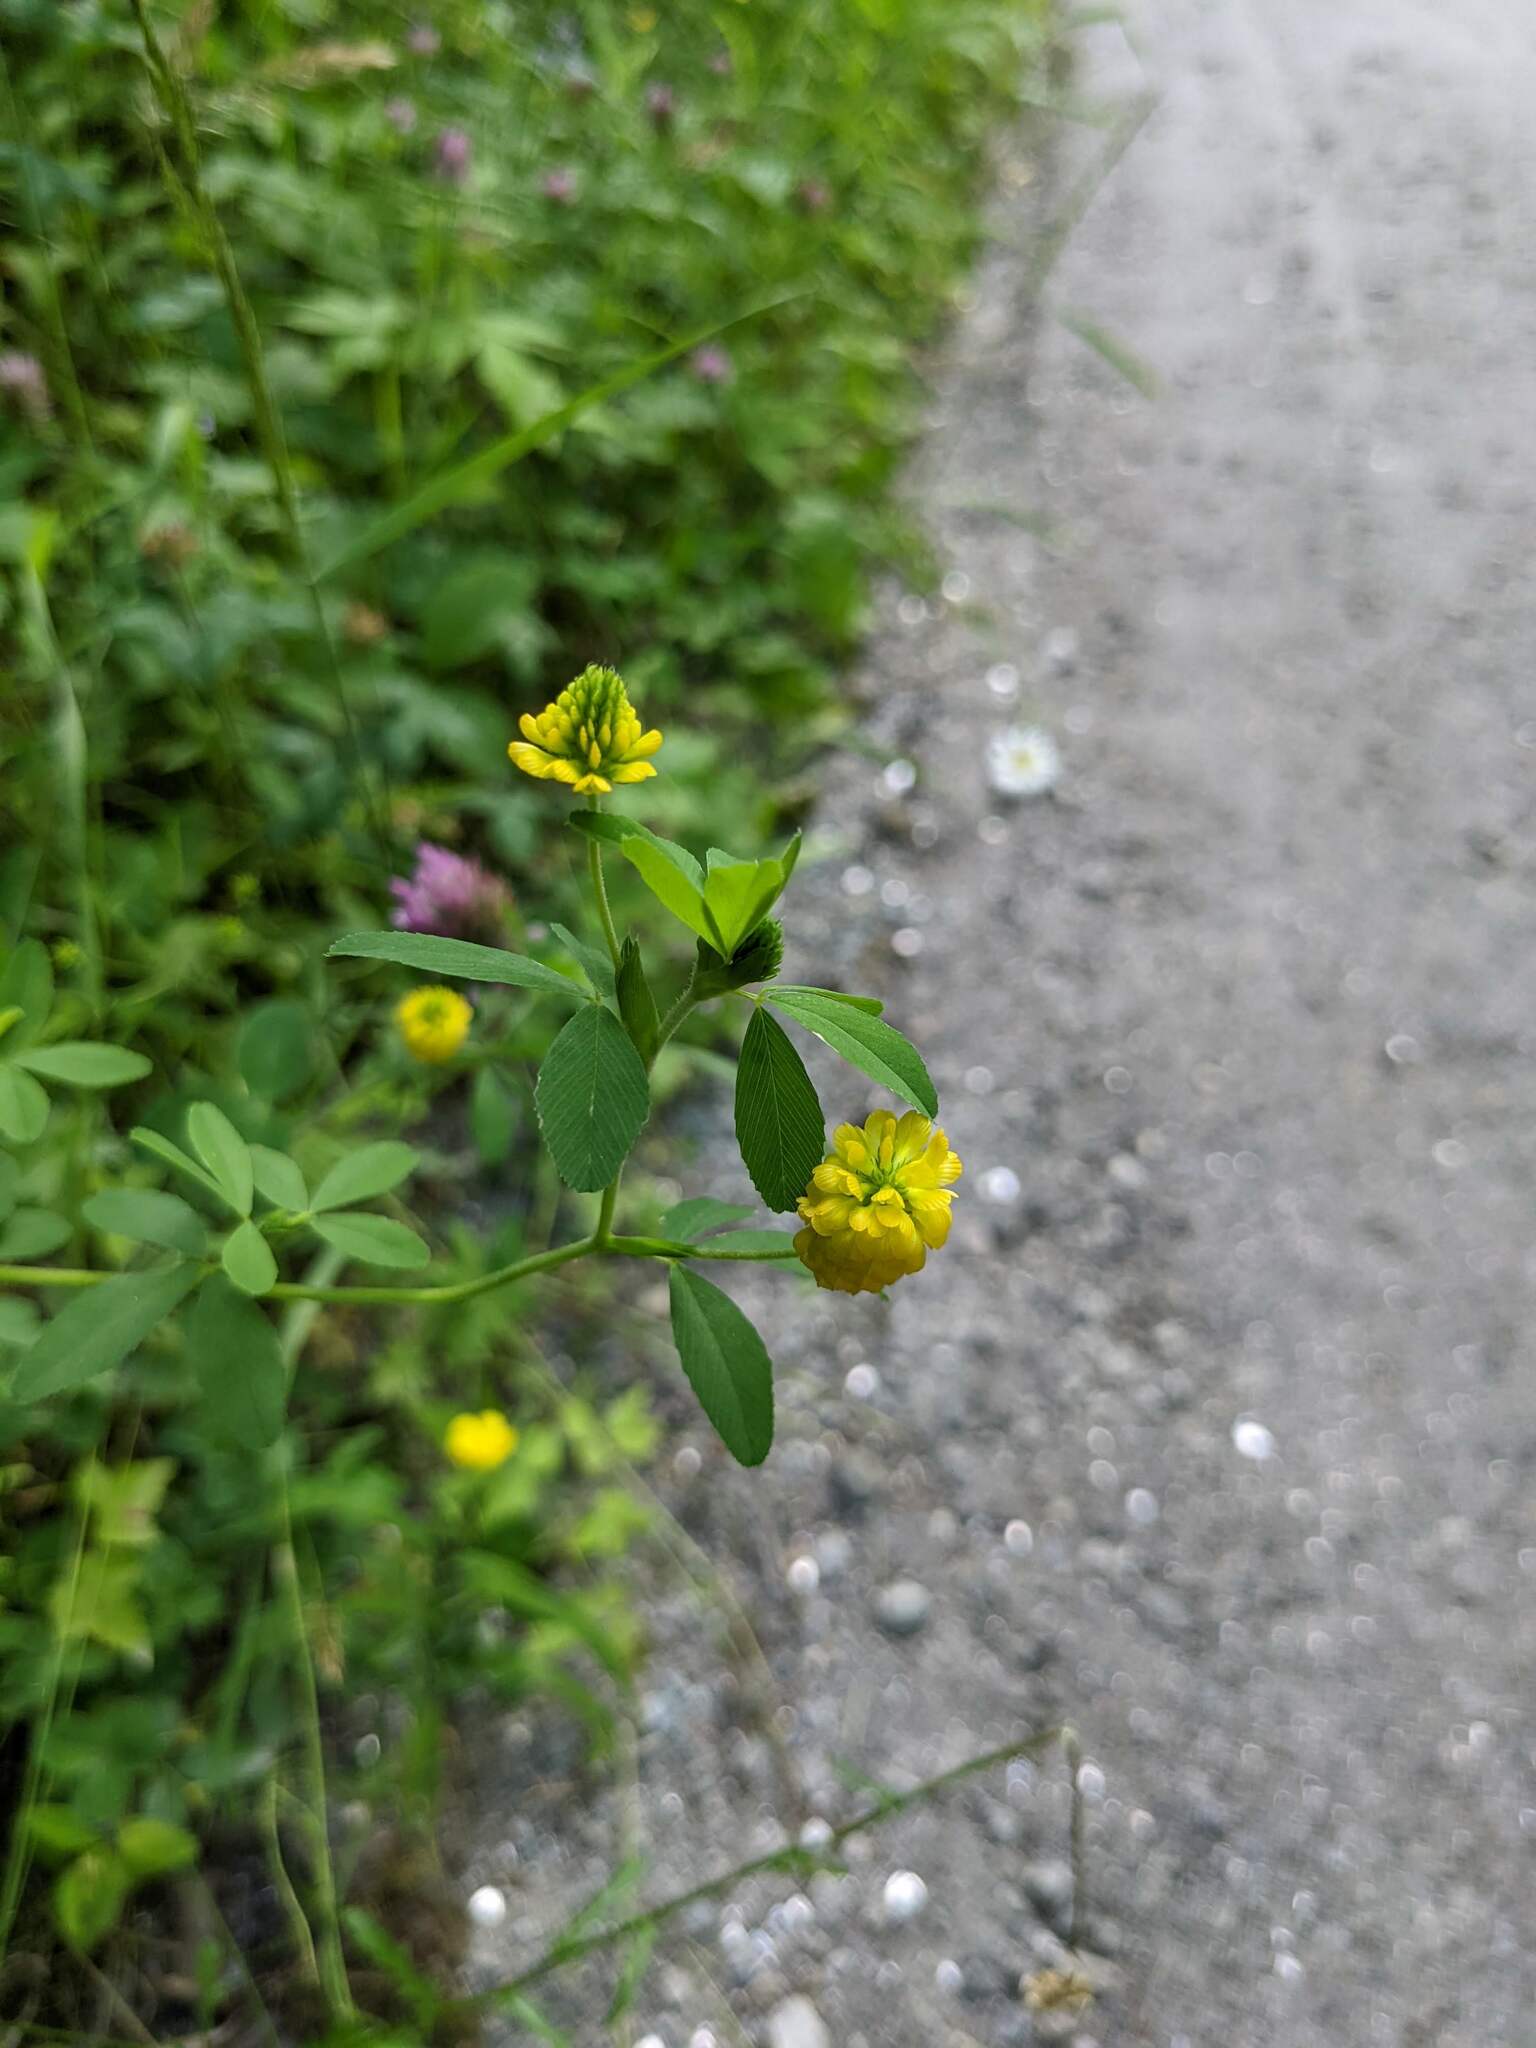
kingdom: Plantae
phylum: Tracheophyta
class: Magnoliopsida
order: Fabales
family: Fabaceae
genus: Trifolium
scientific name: Trifolium aureum
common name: Golden clover
